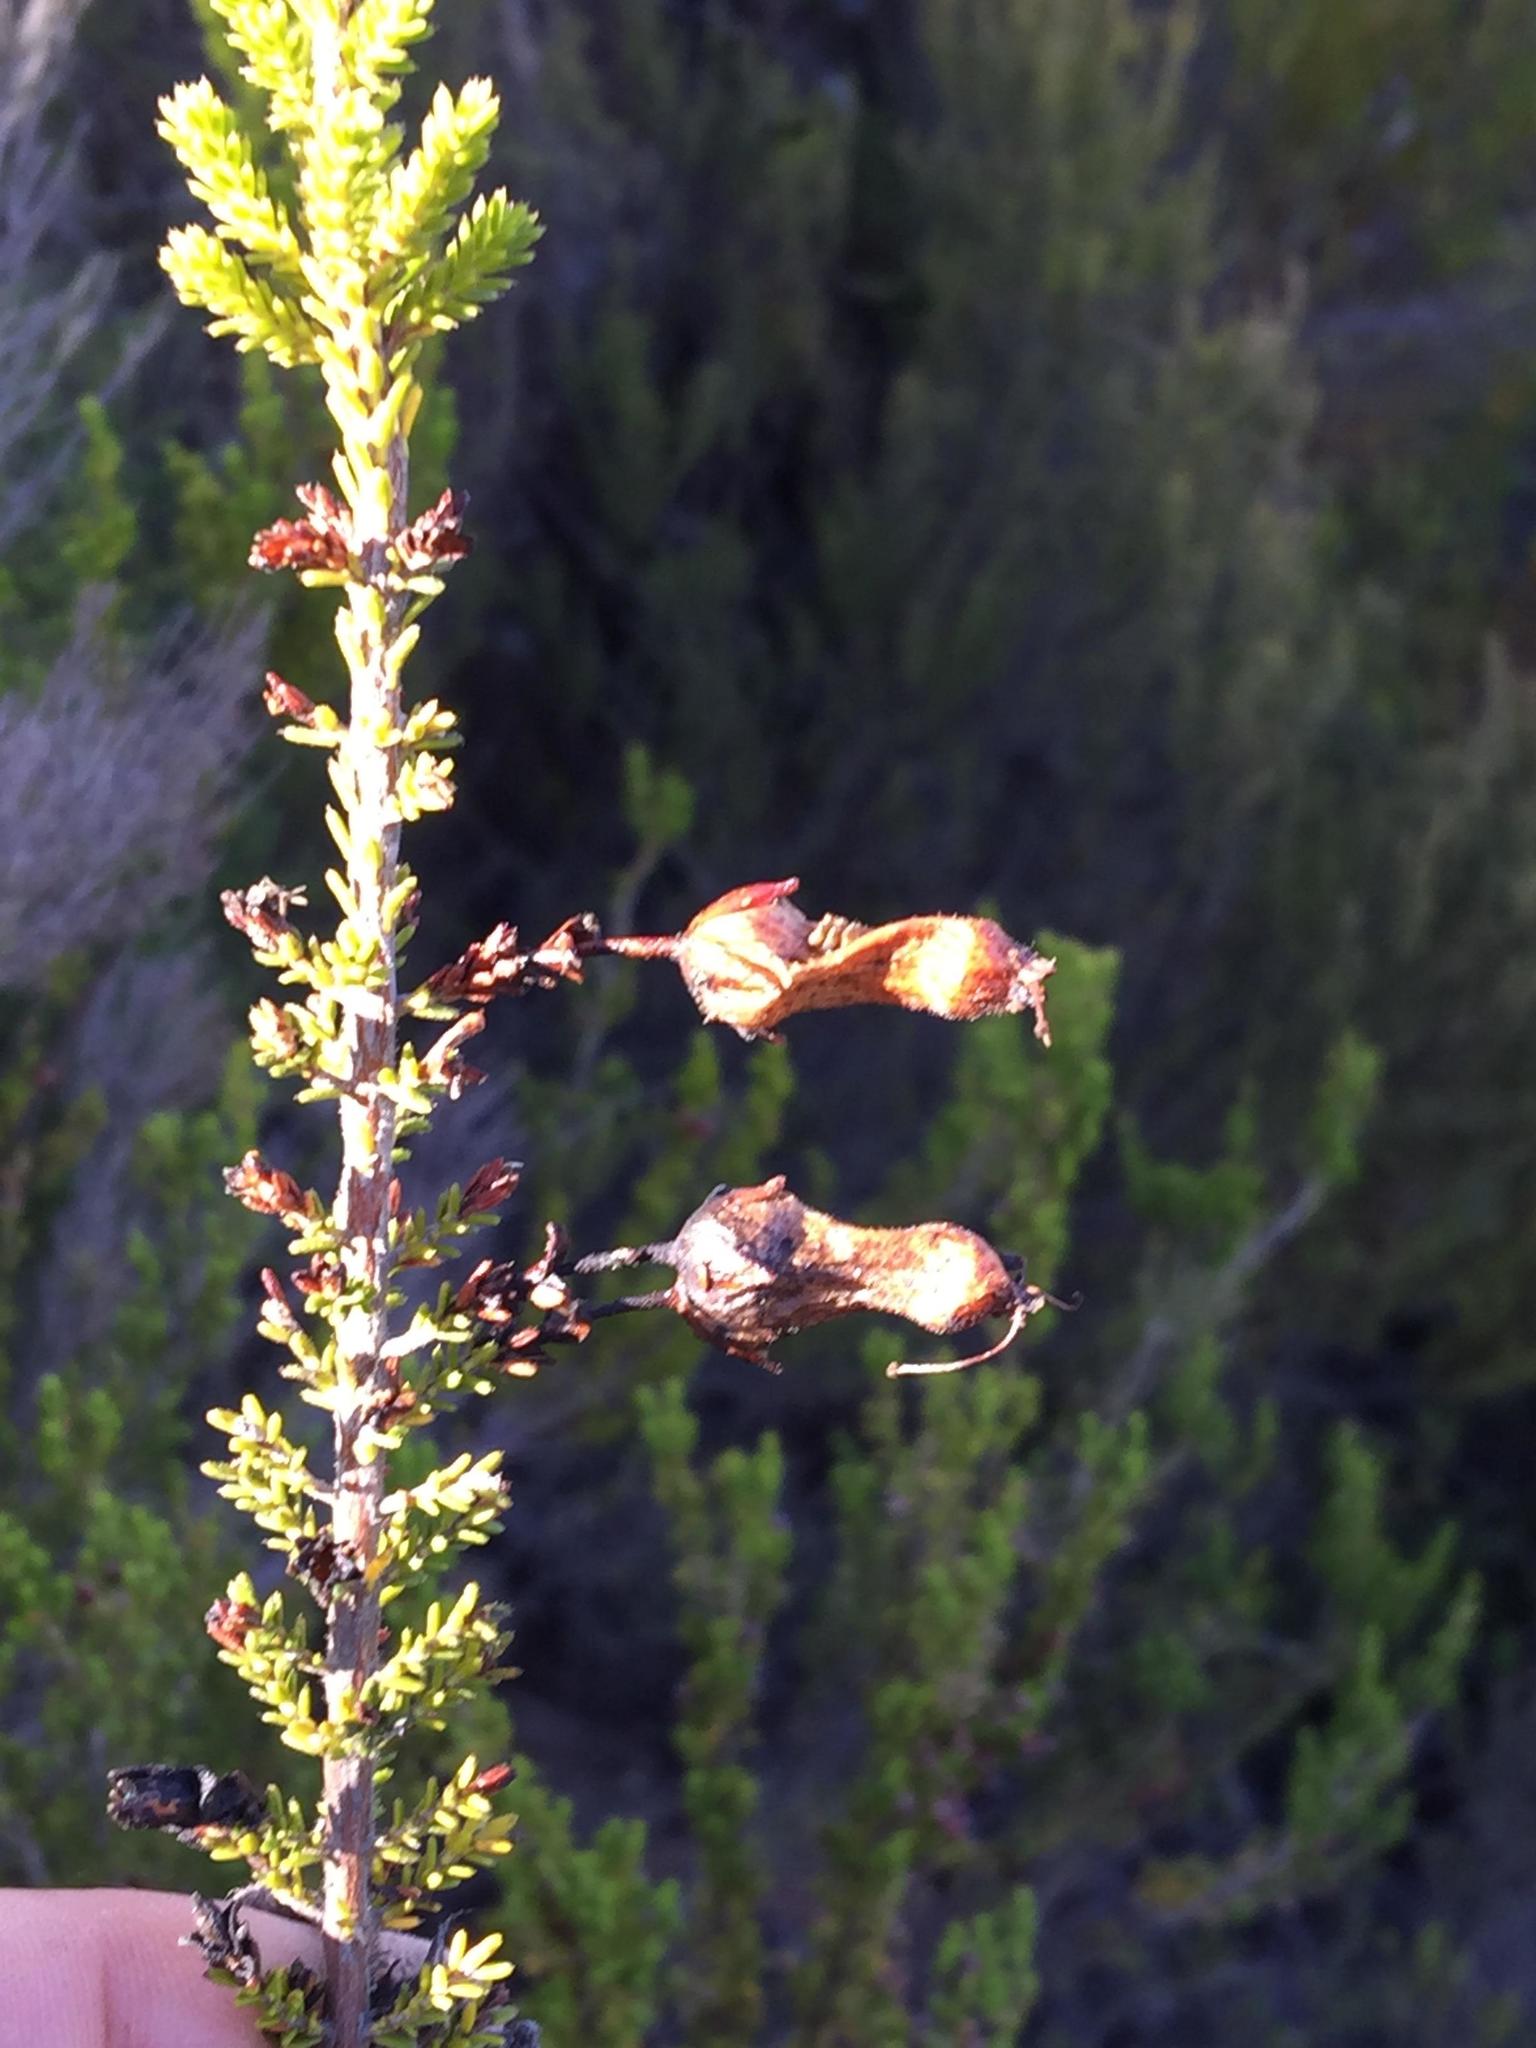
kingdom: Plantae
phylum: Tracheophyta
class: Magnoliopsida
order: Ericales
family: Ericaceae
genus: Erica
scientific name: Erica inordinata
